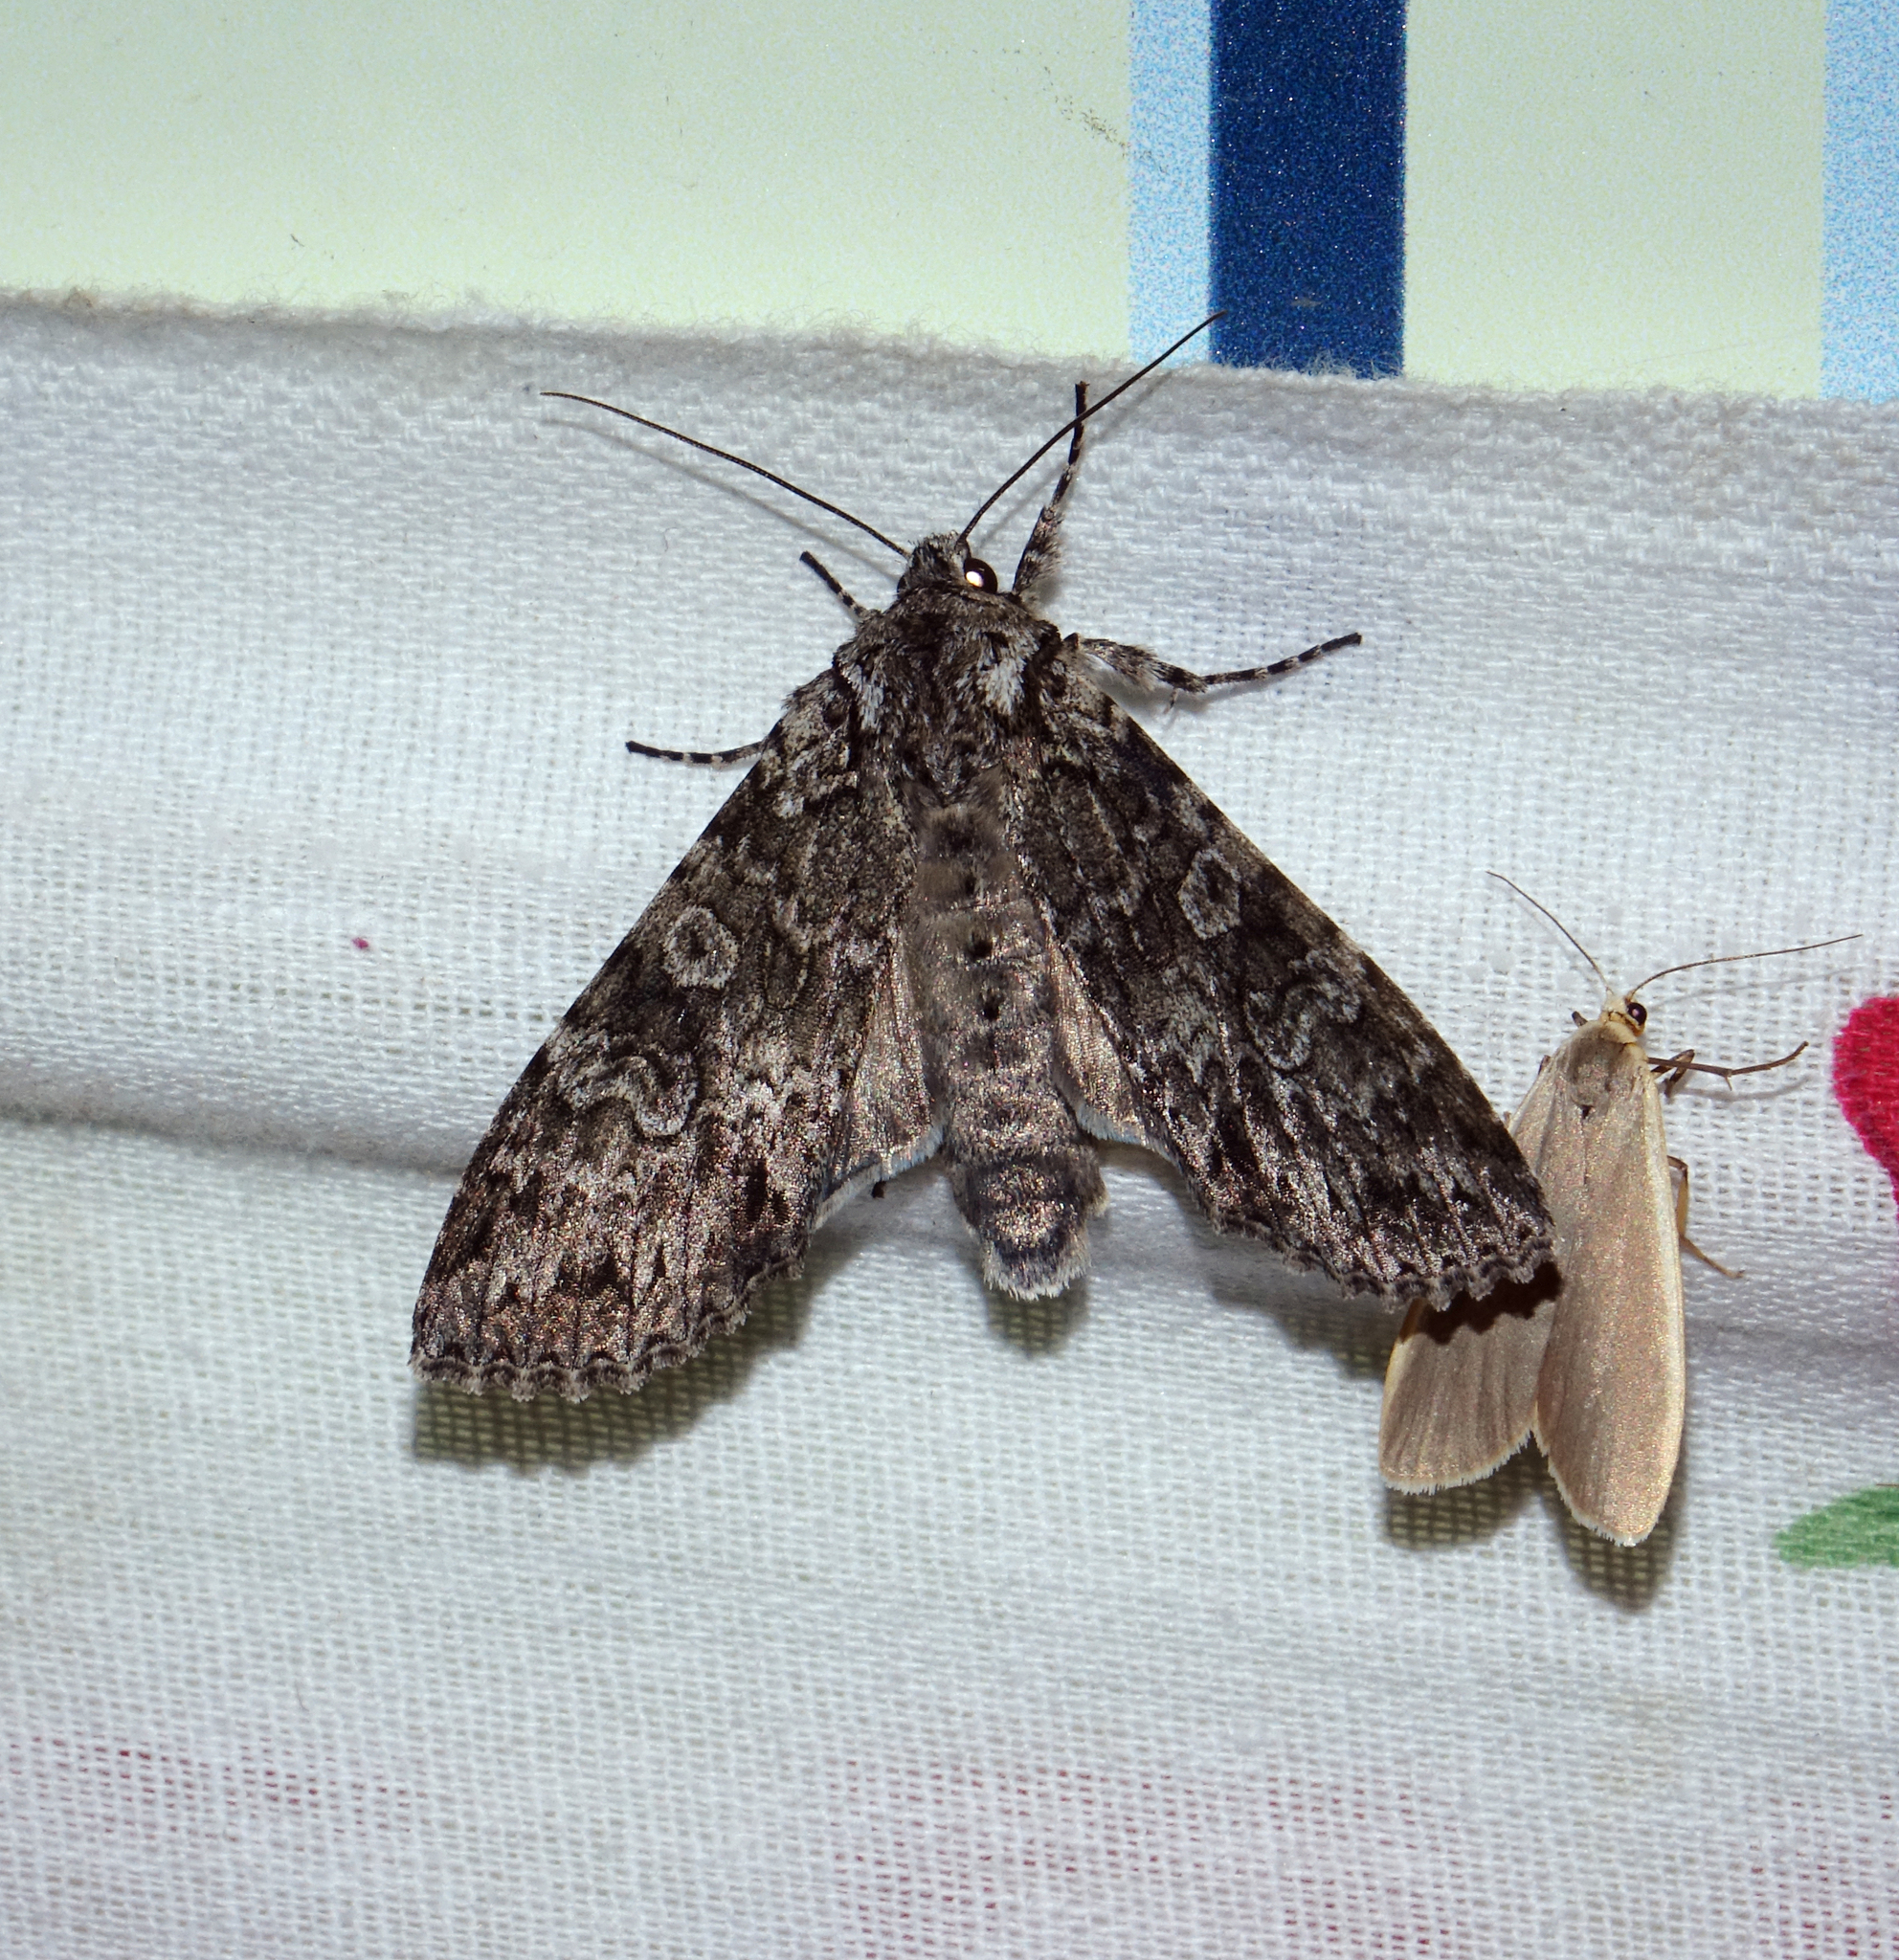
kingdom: Animalia
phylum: Arthropoda
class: Insecta
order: Lepidoptera
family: Noctuidae
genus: Polia
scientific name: Polia nebulosa
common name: Grey arches
